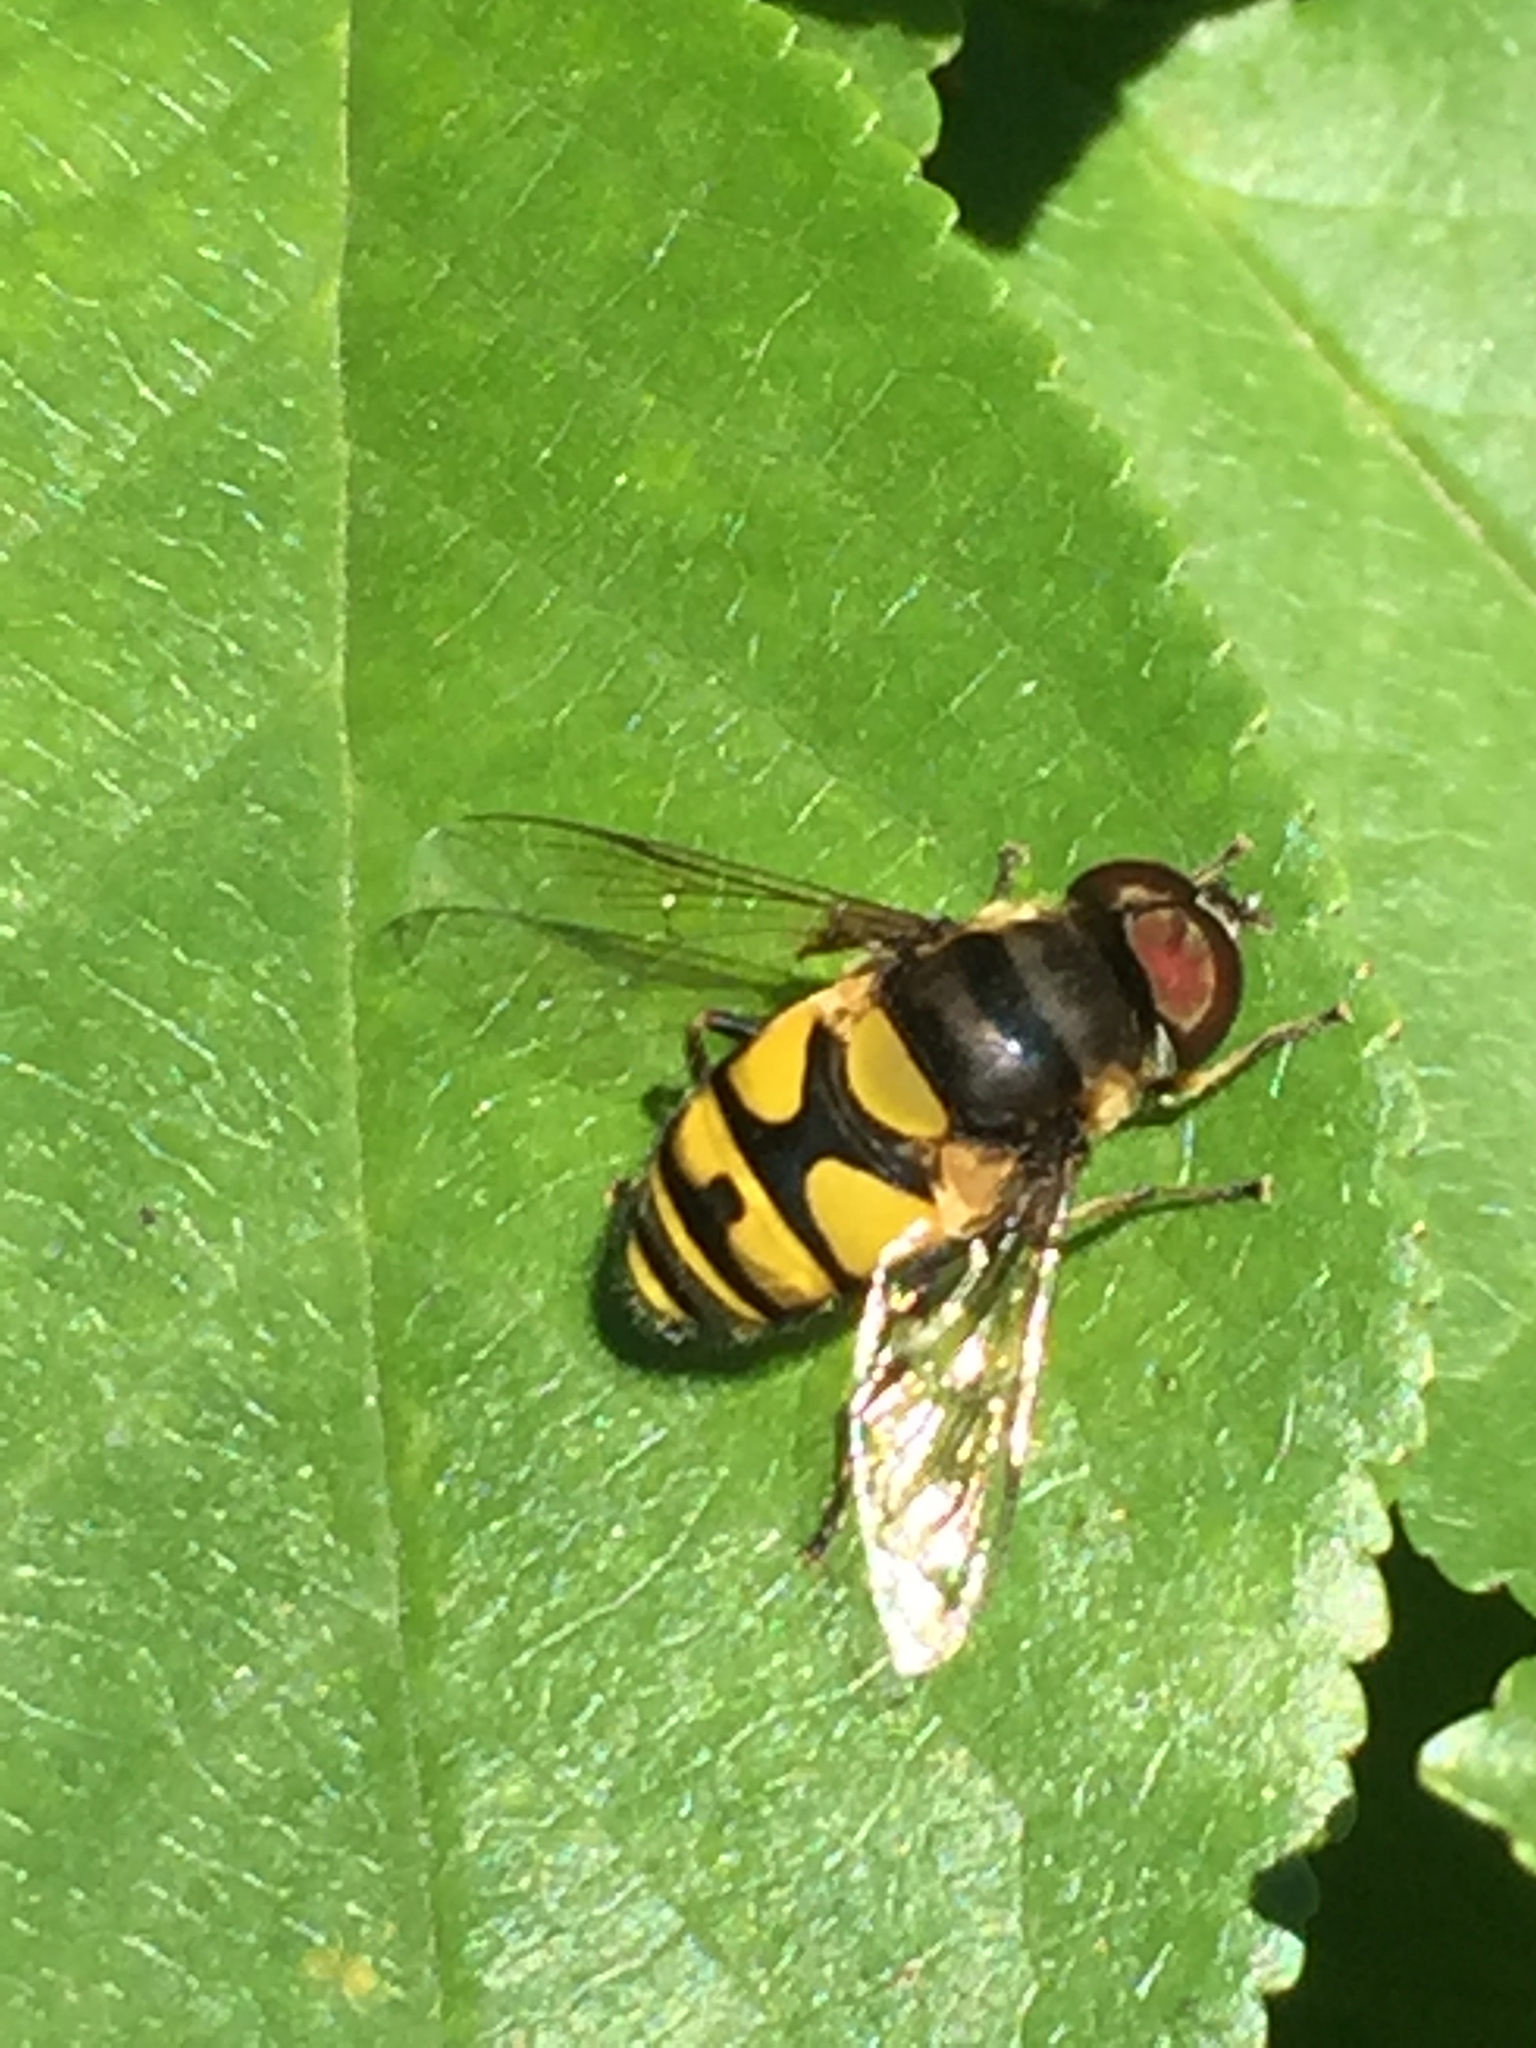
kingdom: Animalia
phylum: Arthropoda
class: Insecta
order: Diptera
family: Syrphidae
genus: Eristalis
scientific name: Eristalis transversa
